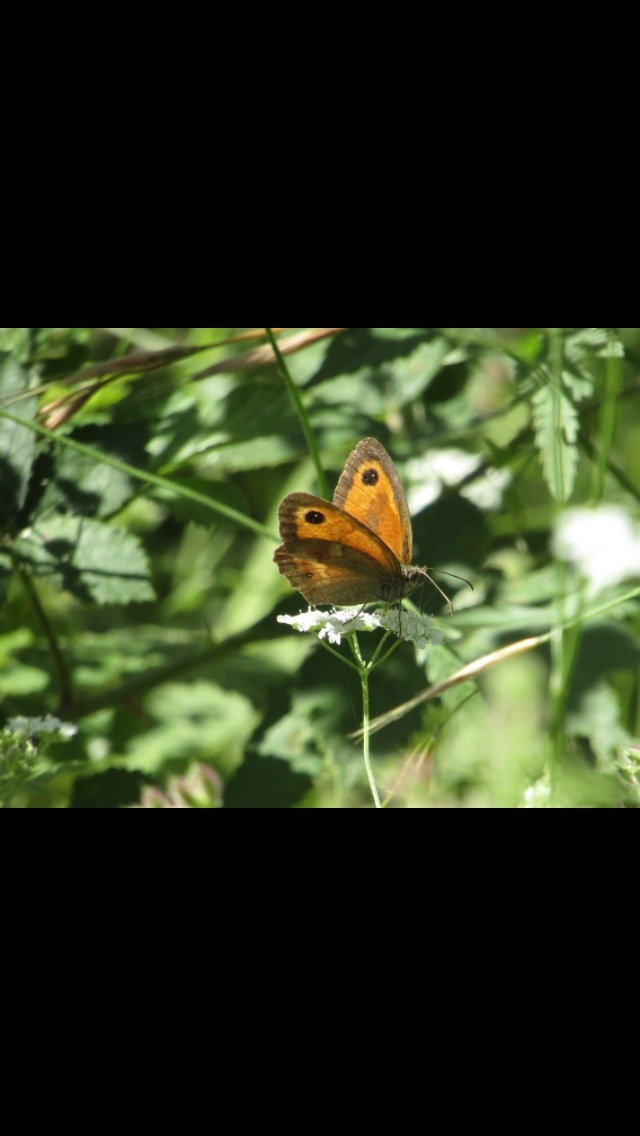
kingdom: Animalia
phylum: Arthropoda
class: Insecta
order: Lepidoptera
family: Nymphalidae
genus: Pyronia
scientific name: Pyronia tithonus
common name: Gatekeeper
